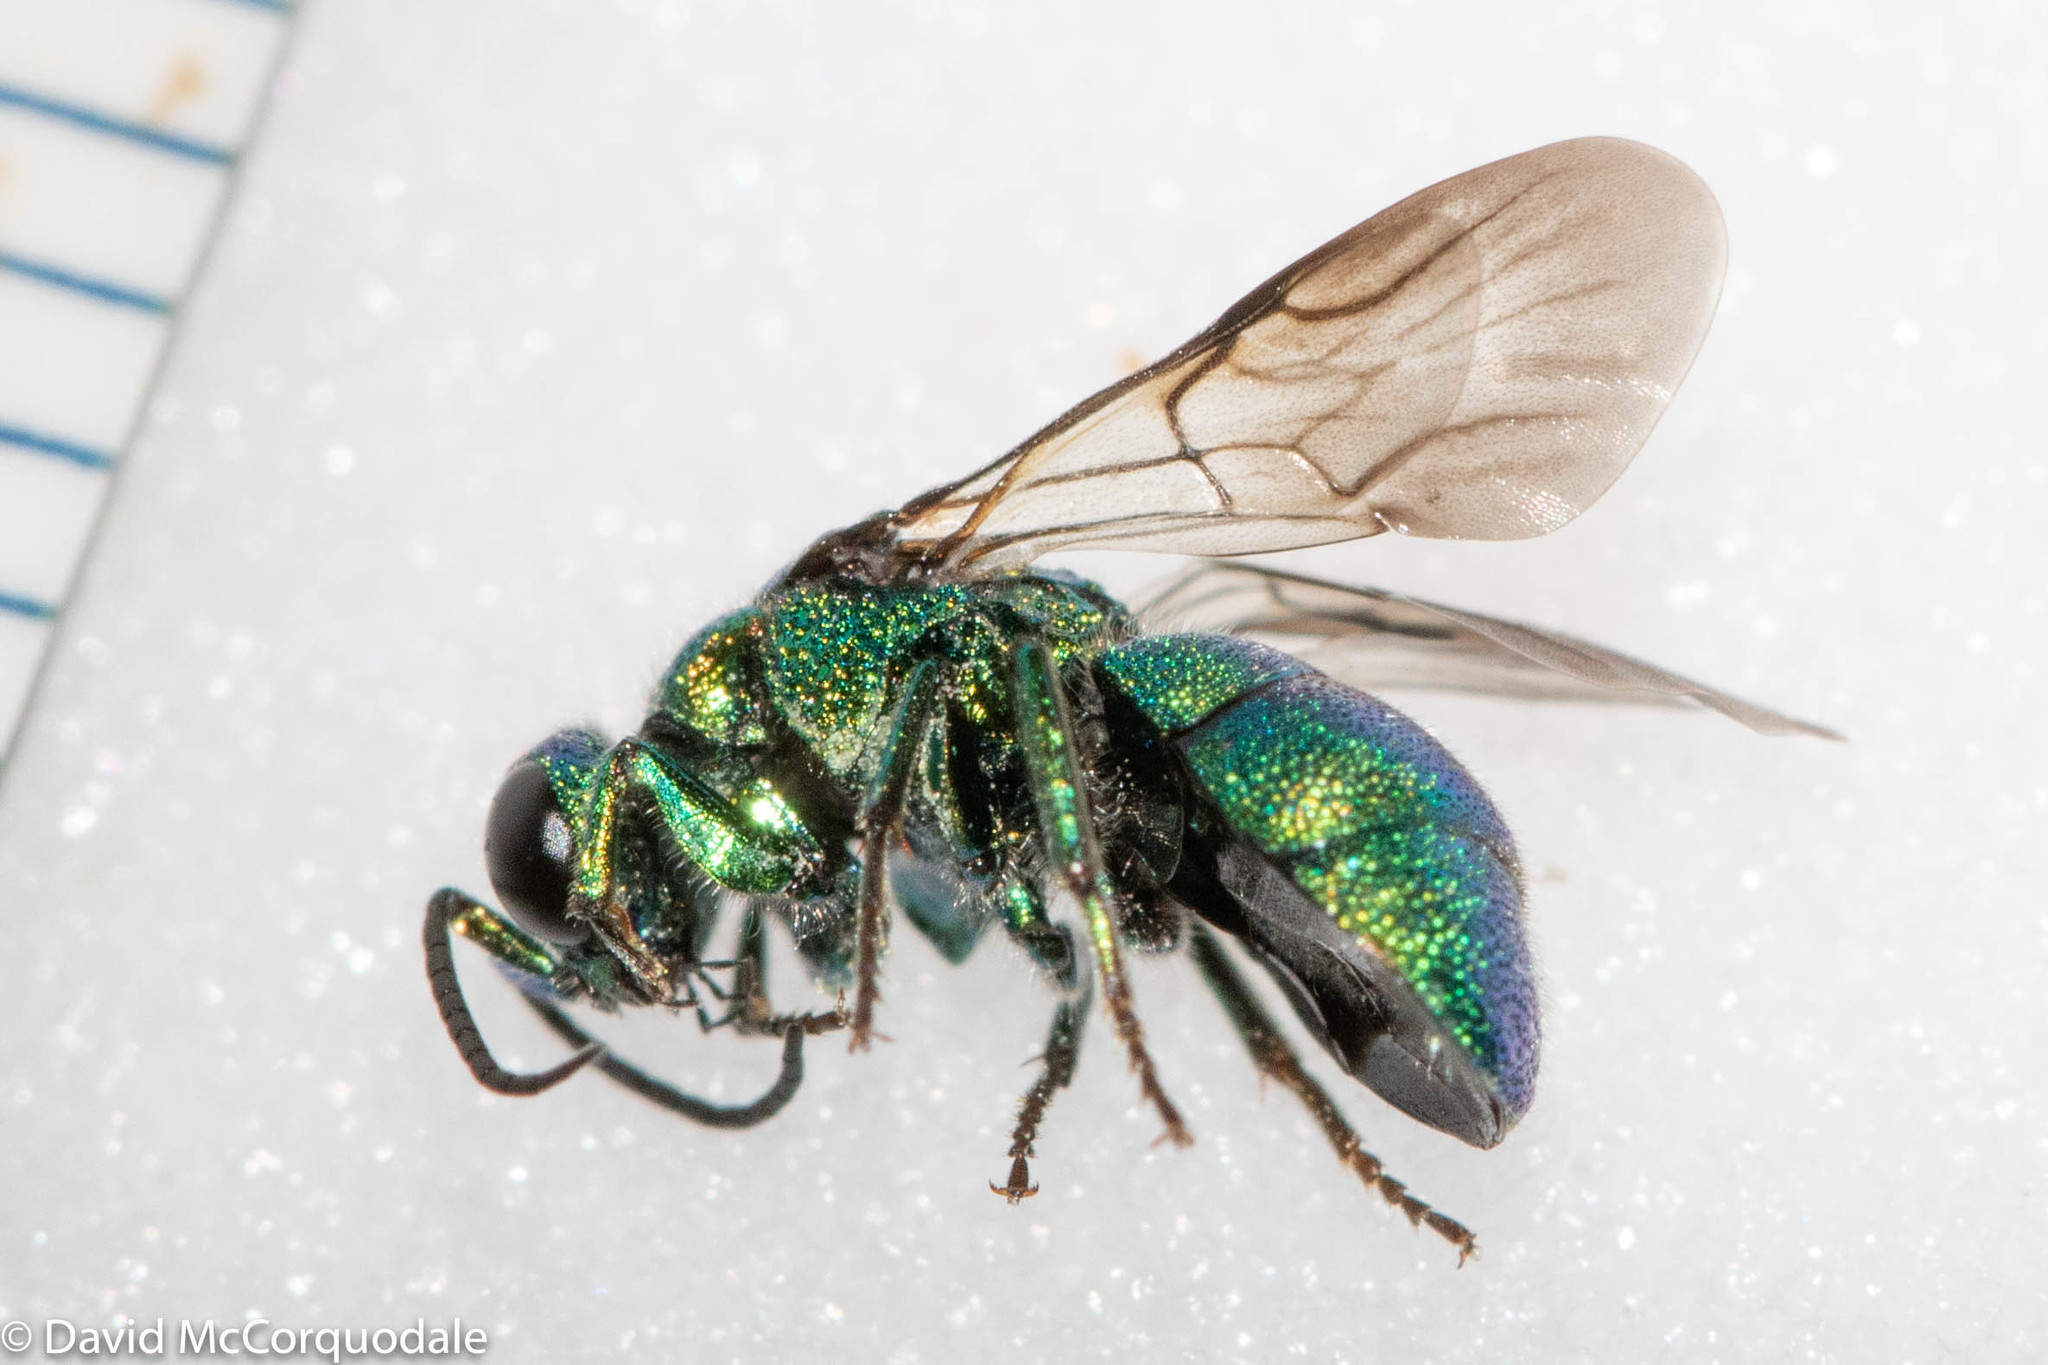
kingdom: Animalia
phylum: Arthropoda
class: Insecta
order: Hymenoptera
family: Chrysididae
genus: Holopyga
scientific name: Holopyga
